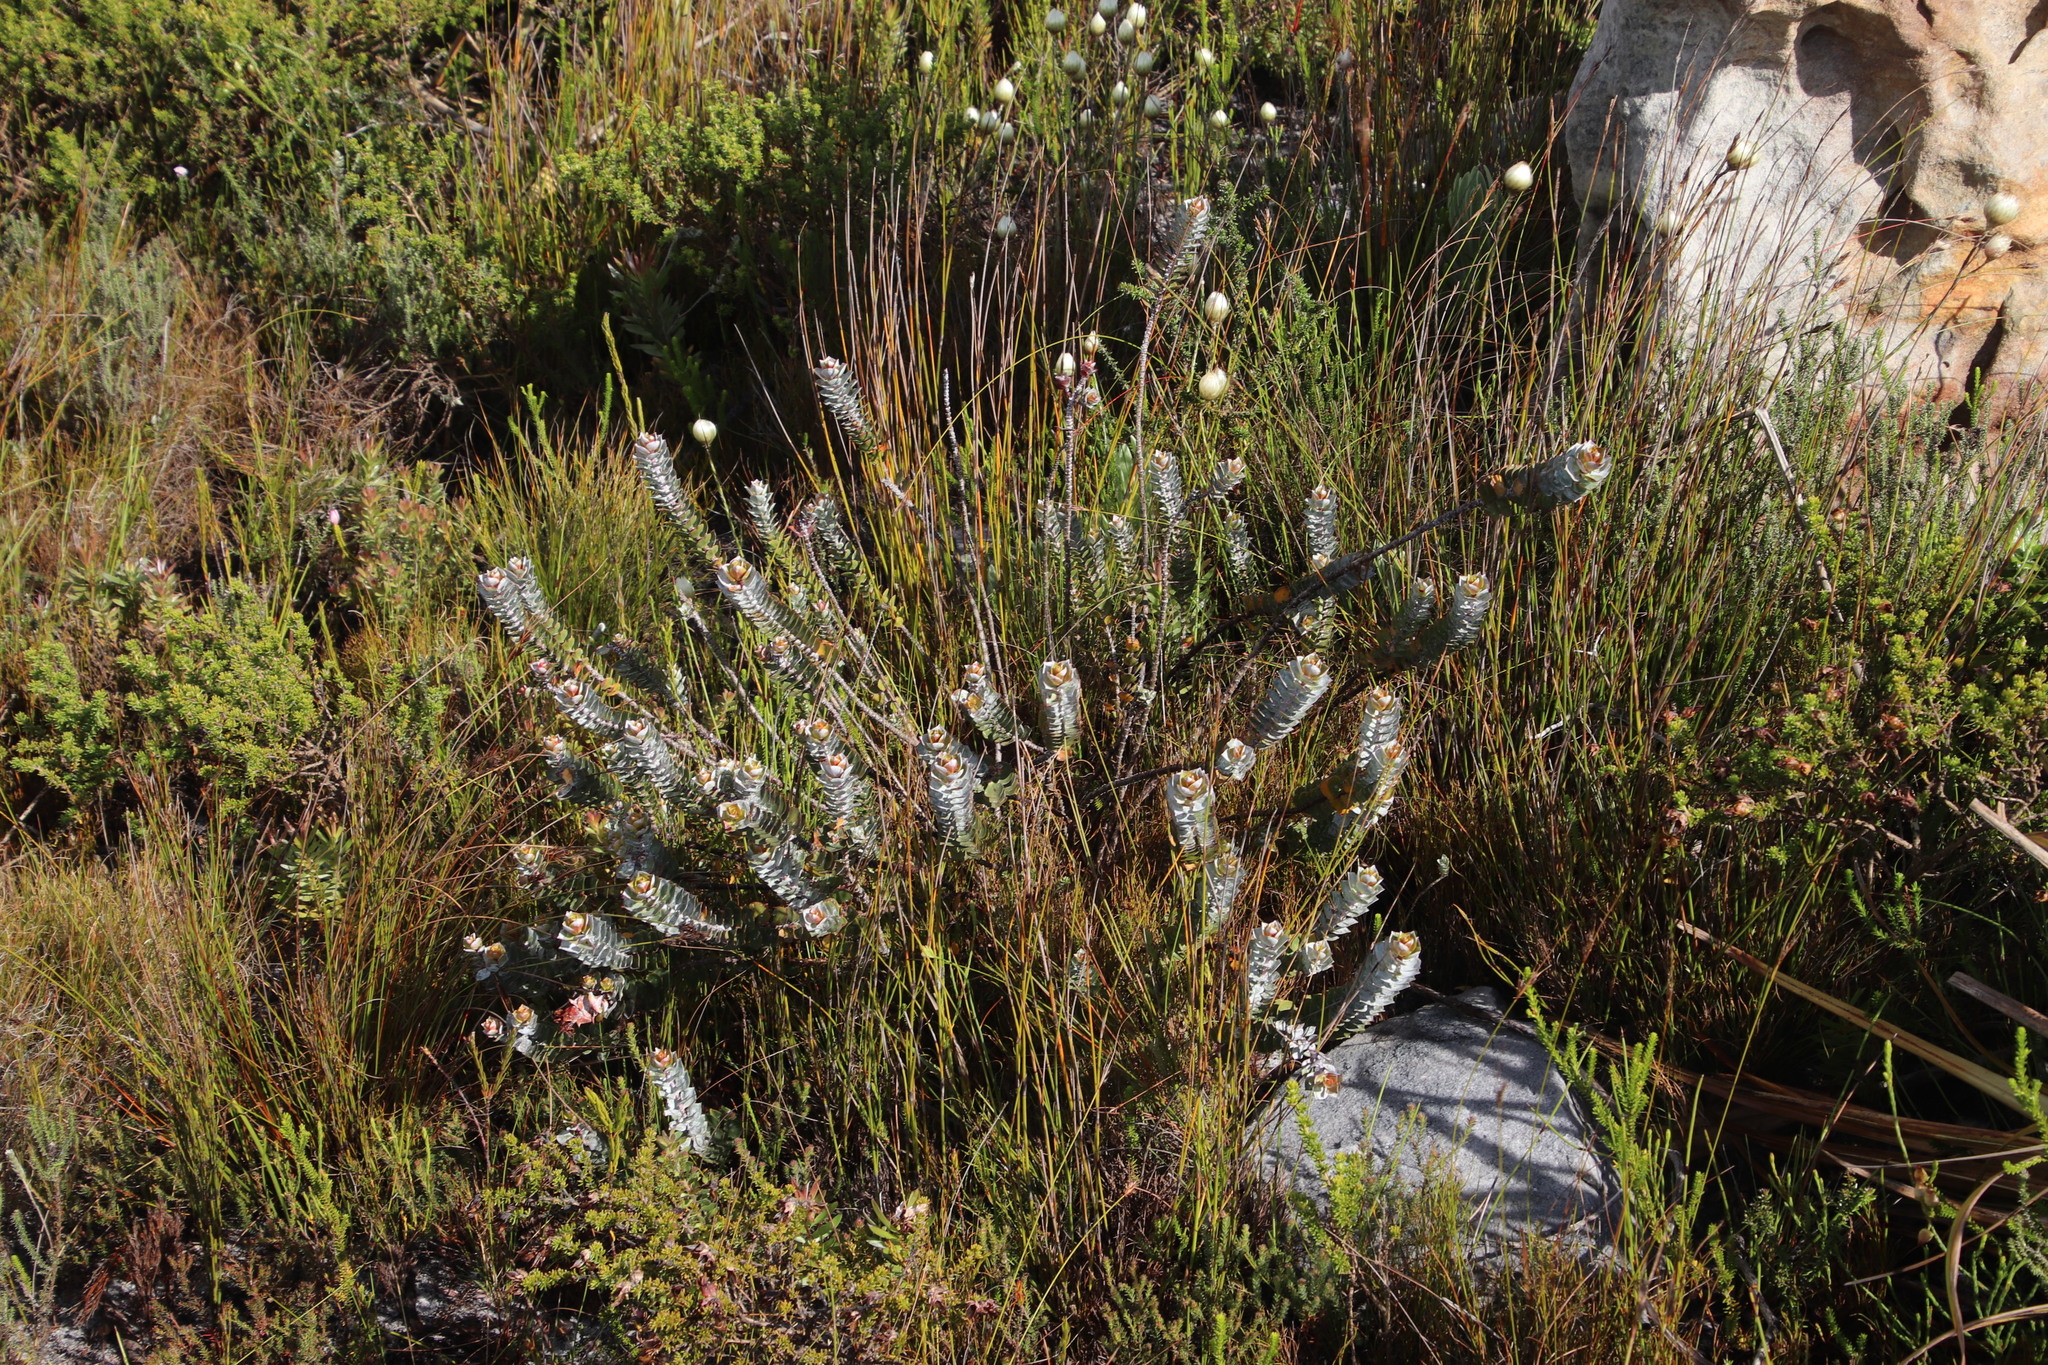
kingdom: Plantae
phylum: Tracheophyta
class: Magnoliopsida
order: Myrtales
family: Penaeaceae
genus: Saltera
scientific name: Saltera sarcocolla
